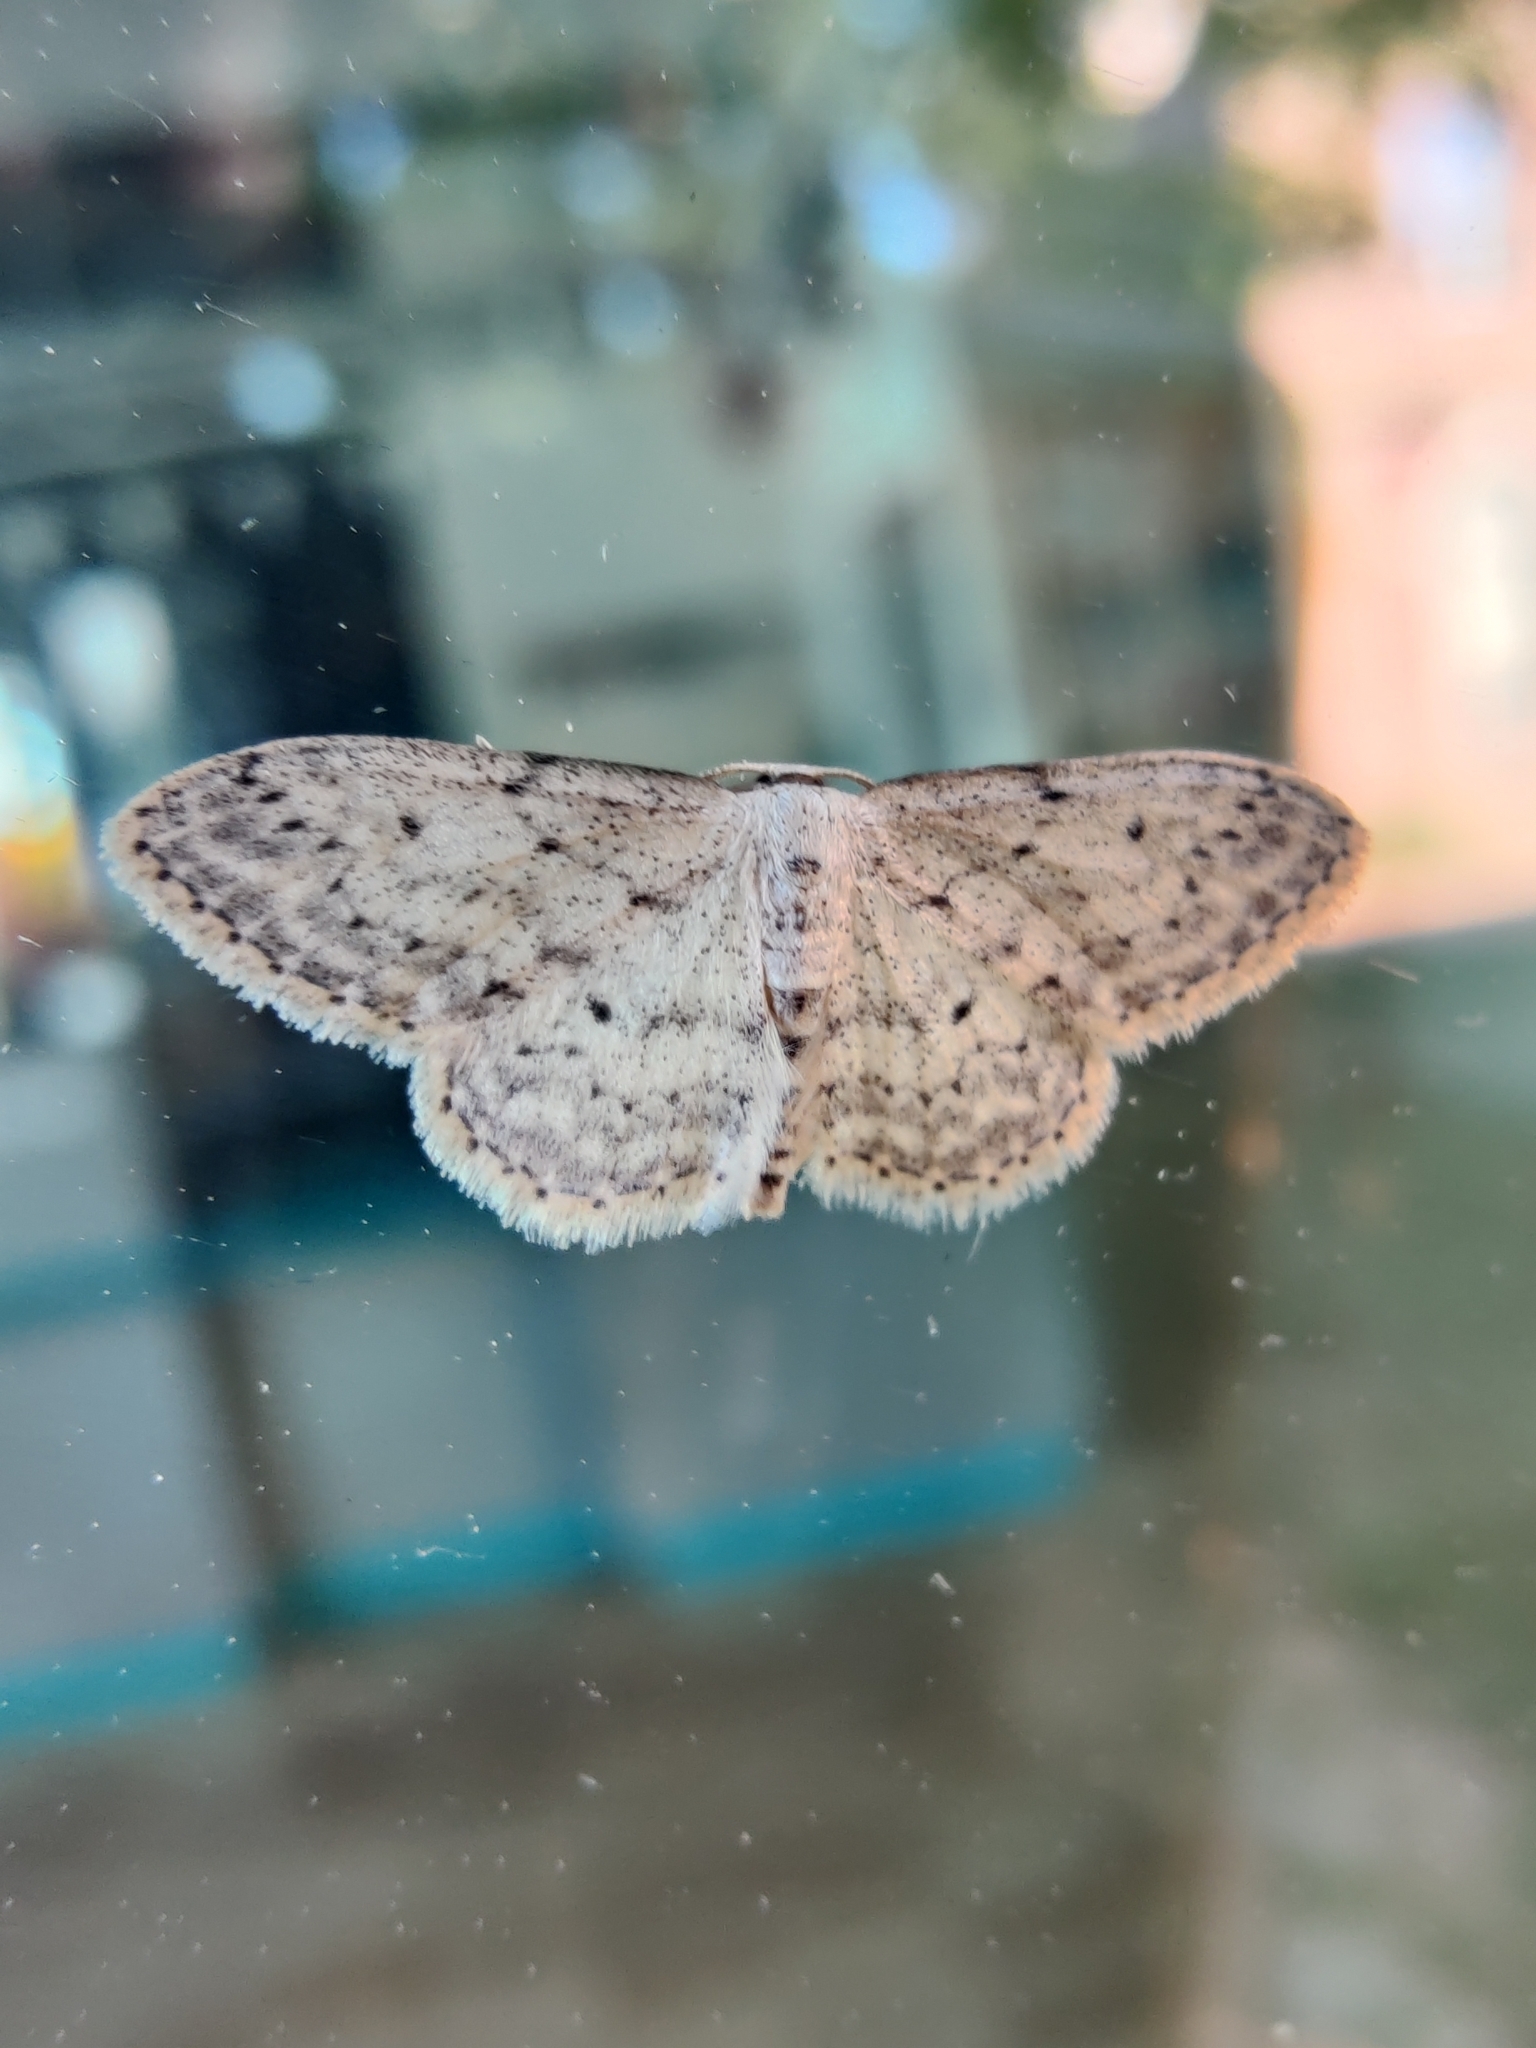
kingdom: Animalia
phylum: Arthropoda
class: Insecta
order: Lepidoptera
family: Geometridae
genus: Idaea
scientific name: Idaea seriata
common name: Small dusty wave
